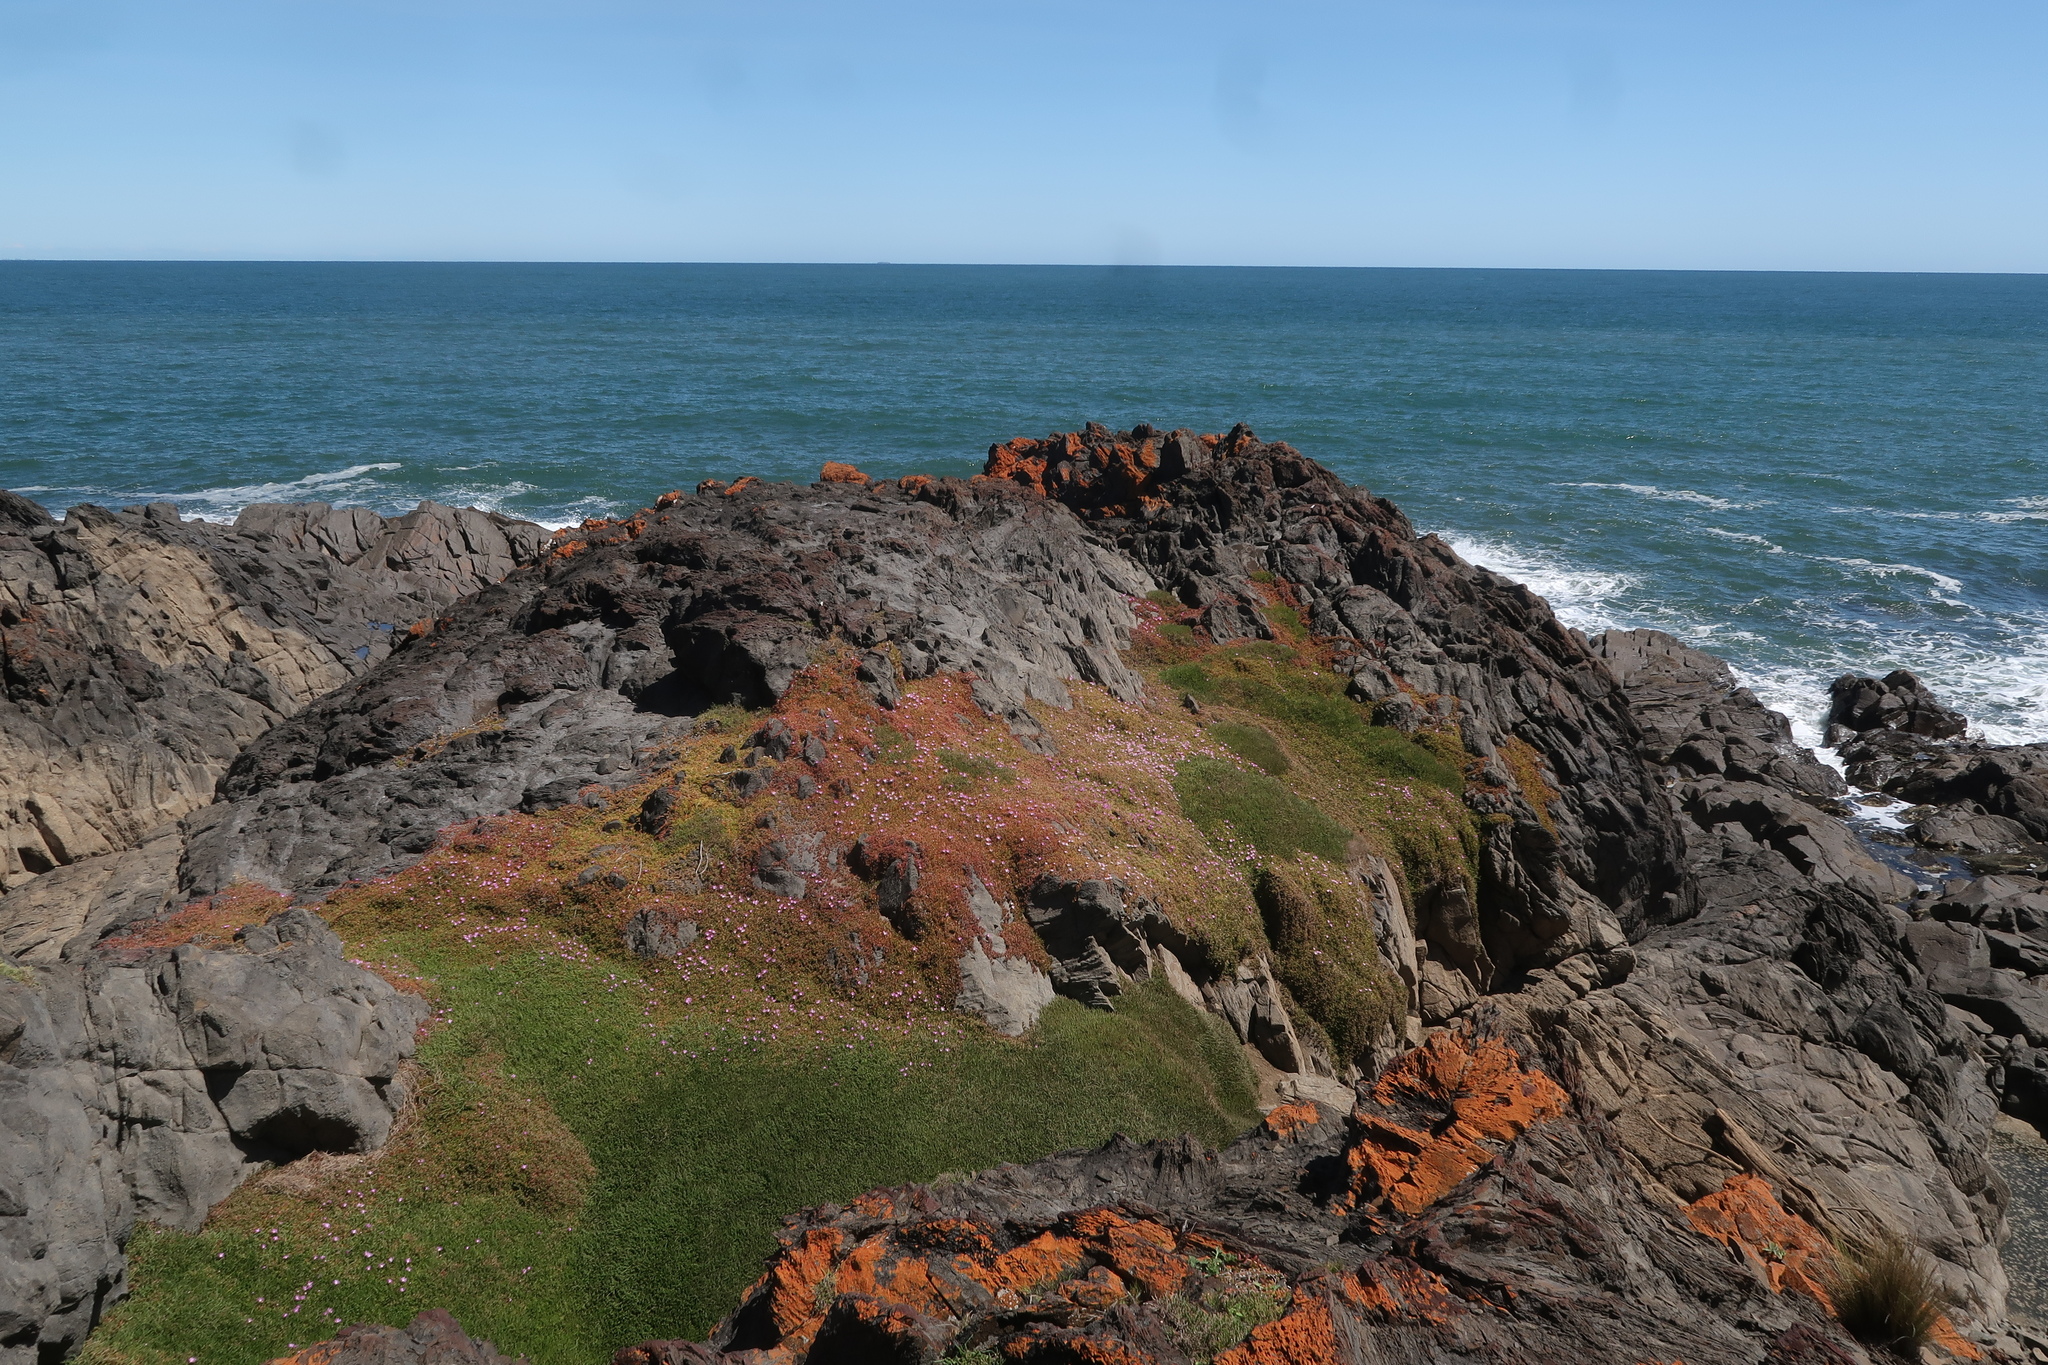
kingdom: Plantae
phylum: Tracheophyta
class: Magnoliopsida
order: Caryophyllales
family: Aizoaceae
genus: Disphyma
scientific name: Disphyma clavellatum
